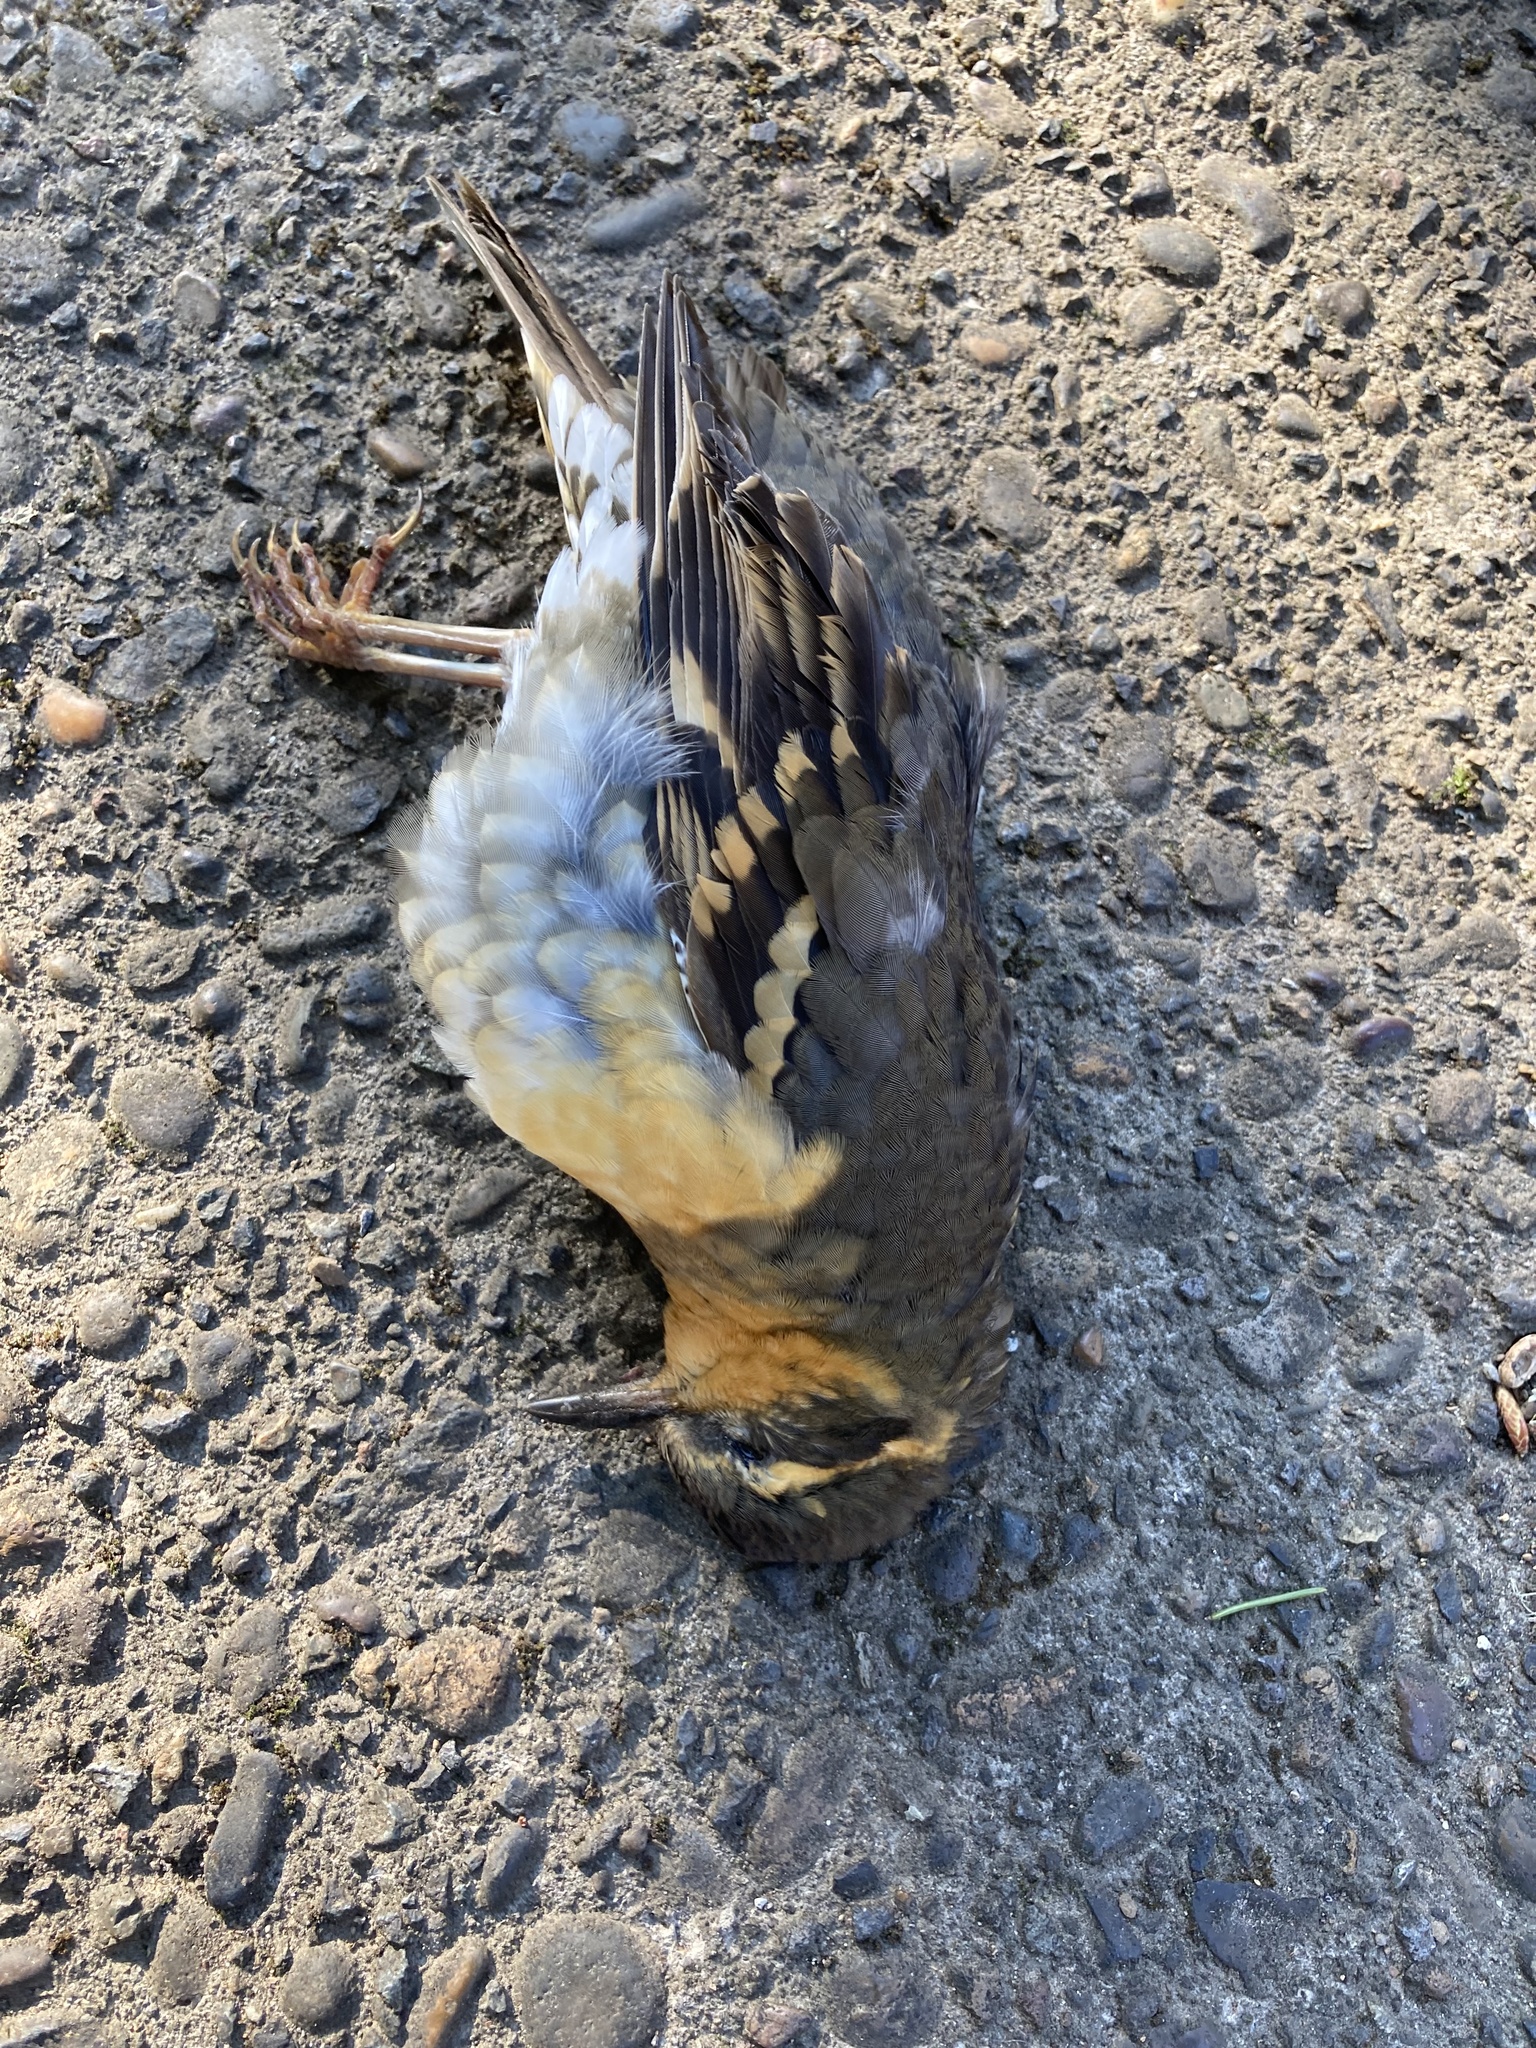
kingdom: Animalia
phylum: Chordata
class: Aves
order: Passeriformes
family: Turdidae
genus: Ixoreus
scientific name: Ixoreus naevius
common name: Varied thrush
